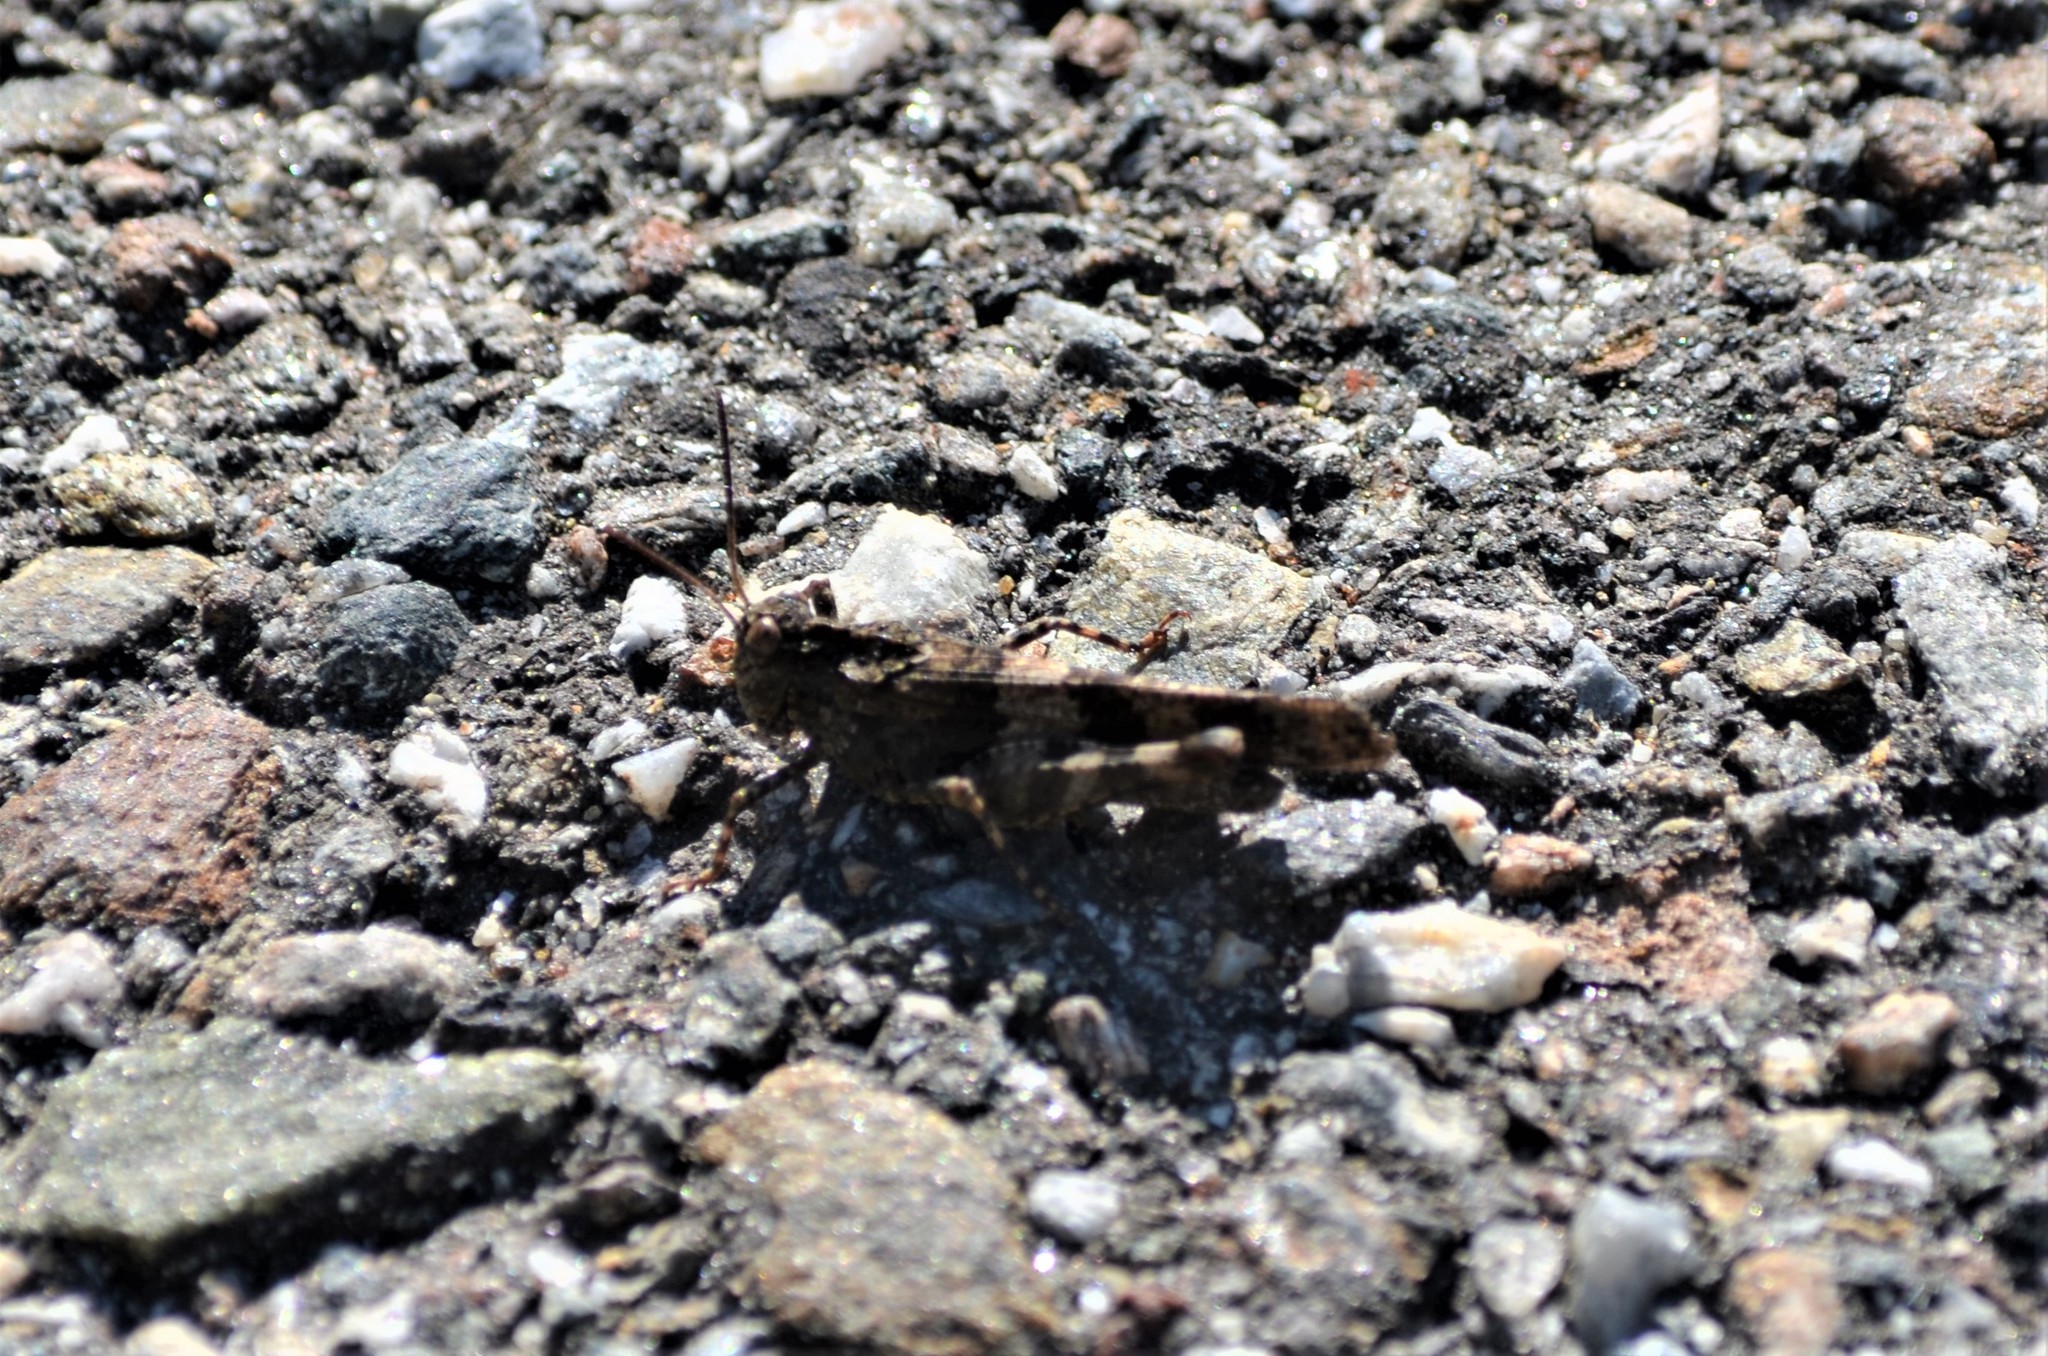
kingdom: Animalia
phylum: Arthropoda
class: Insecta
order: Orthoptera
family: Acrididae
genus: Oedipoda
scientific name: Oedipoda caerulescens
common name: Blue-winged grasshopper
